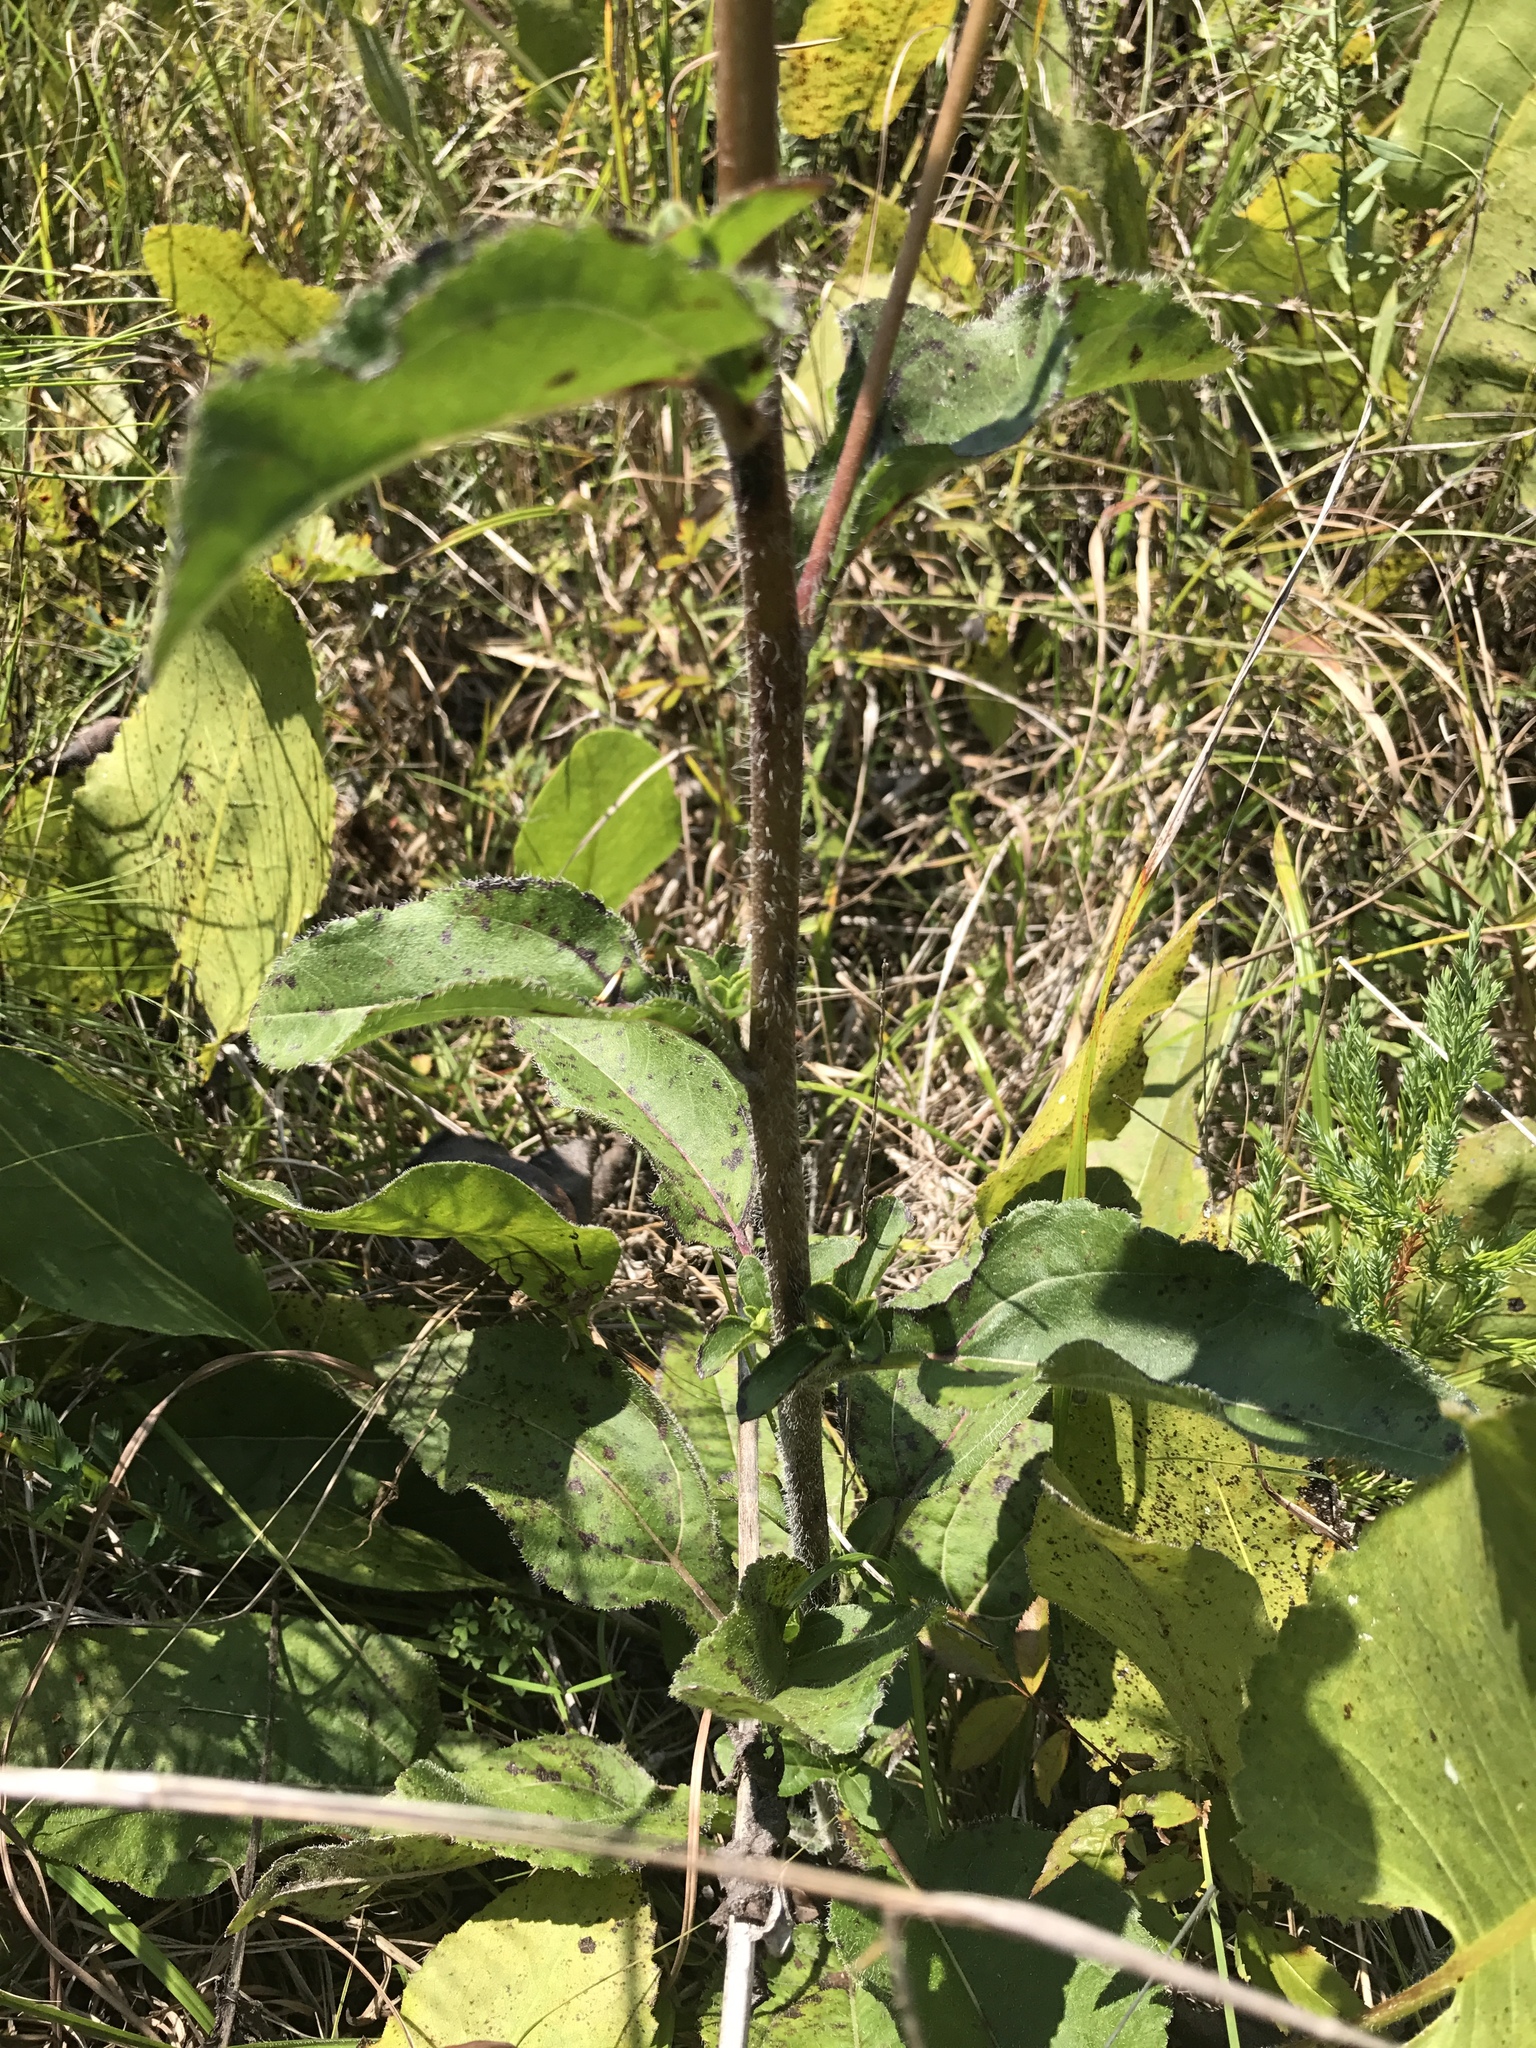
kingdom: Plantae
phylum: Tracheophyta
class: Magnoliopsida
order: Asterales
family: Asteraceae
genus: Helianthus
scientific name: Helianthus atrorubens
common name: Dark-eyed sunflower
